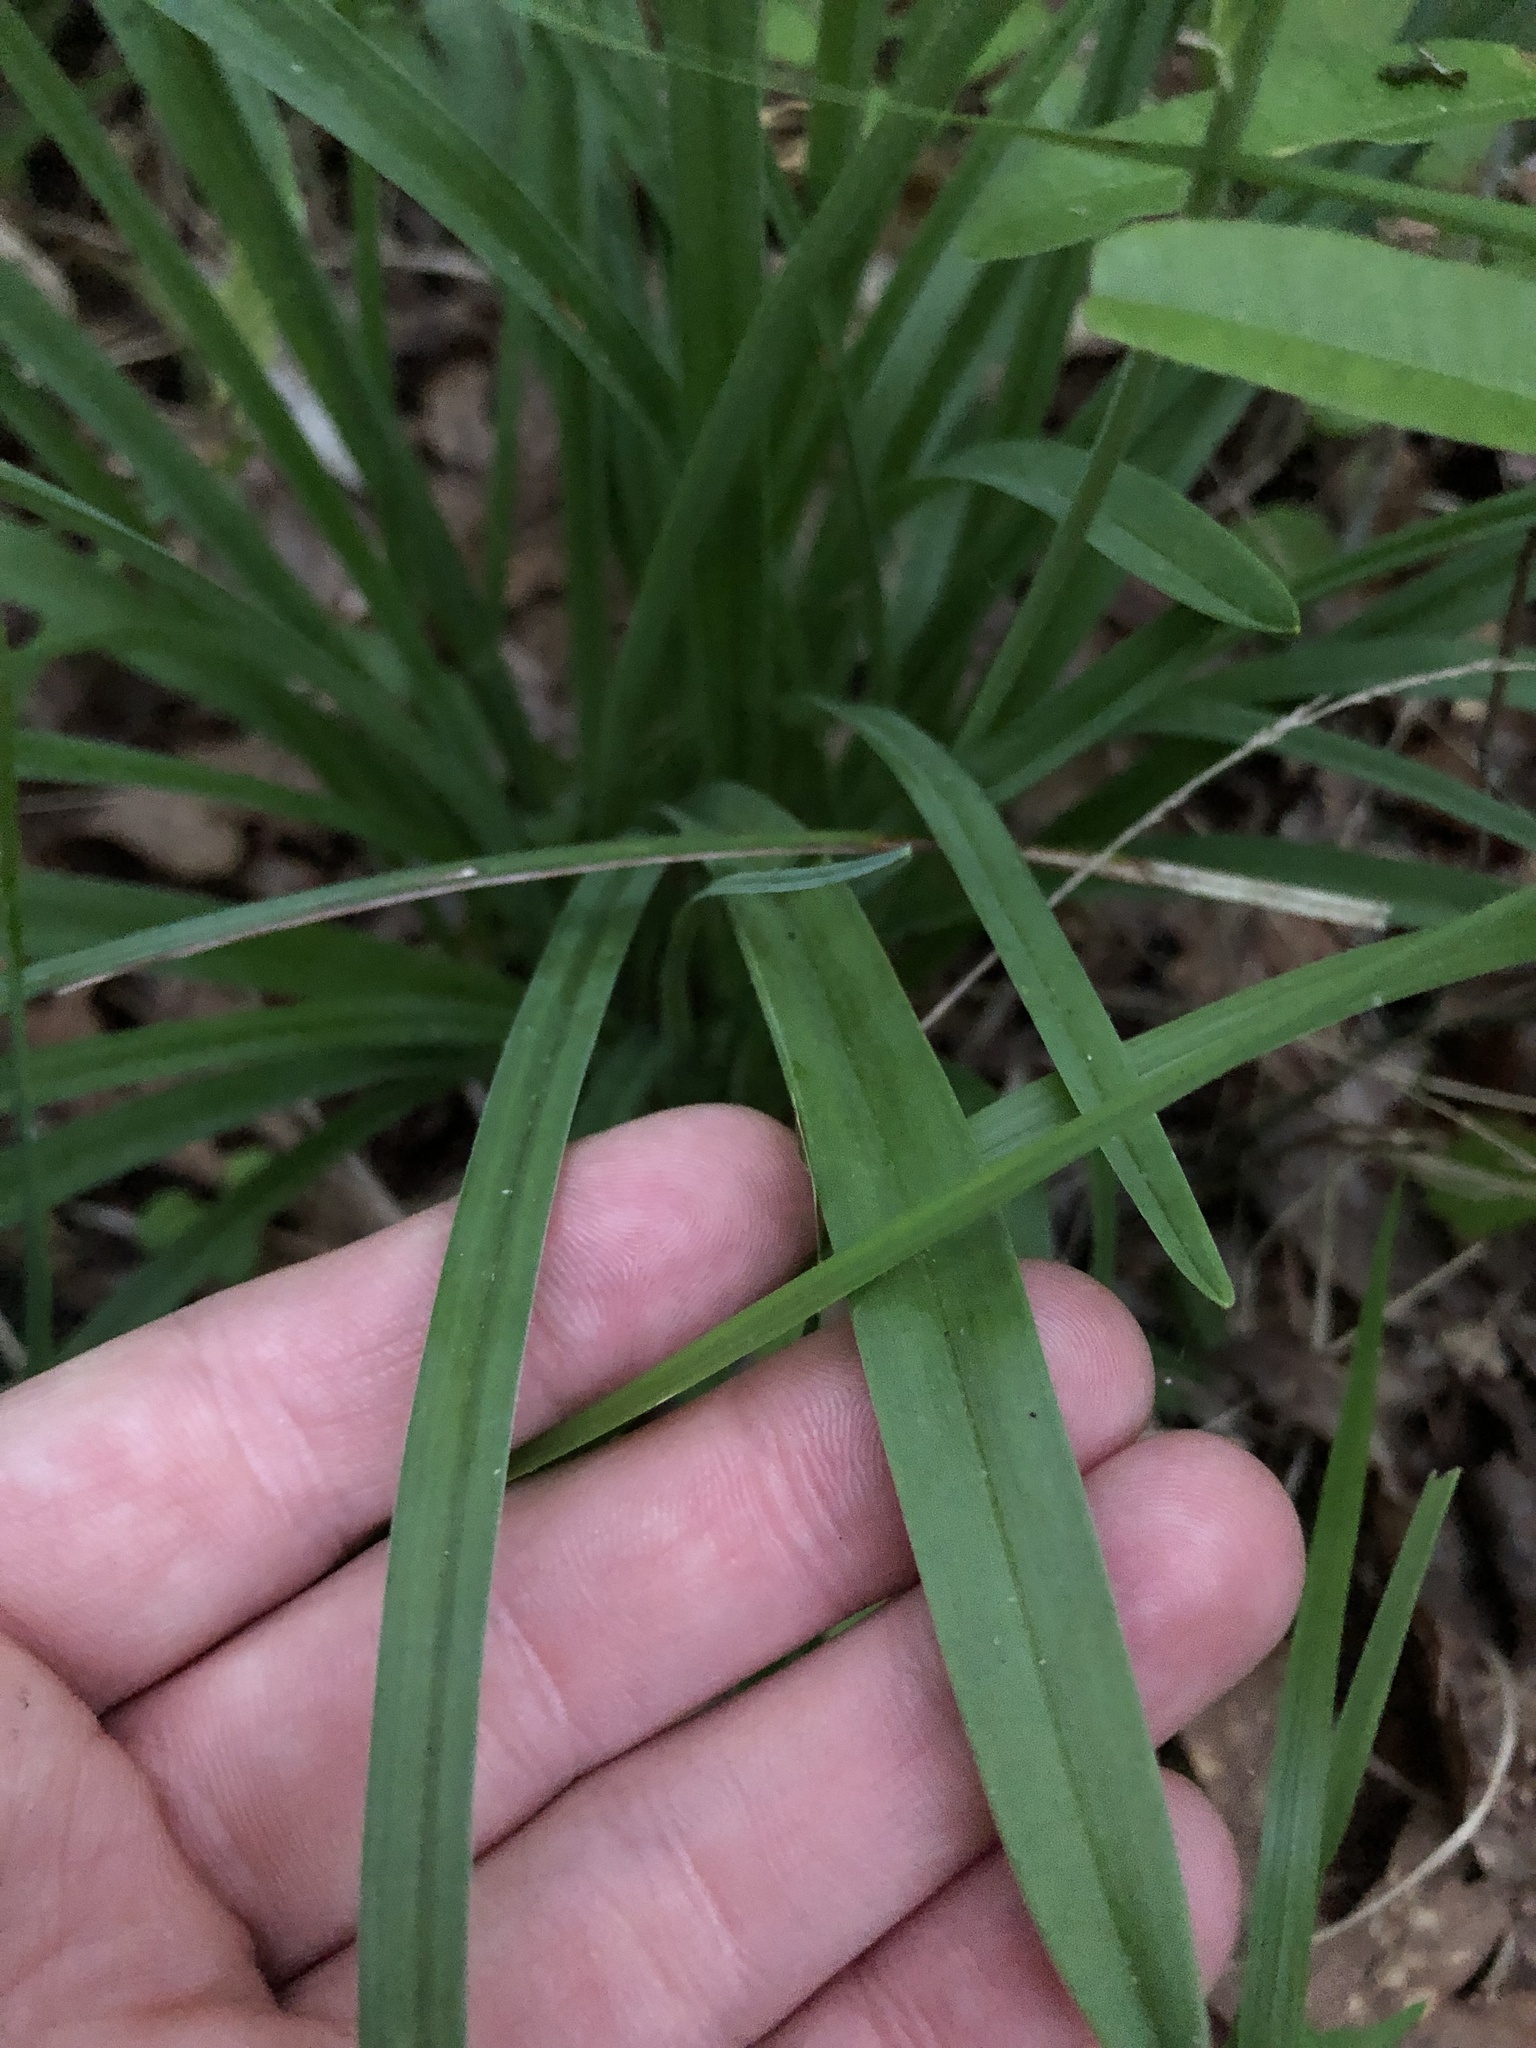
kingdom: Plantae
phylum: Tracheophyta
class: Liliopsida
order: Liliales
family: Melanthiaceae
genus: Amianthium
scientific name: Amianthium muscitoxicum
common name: Fly-poison
